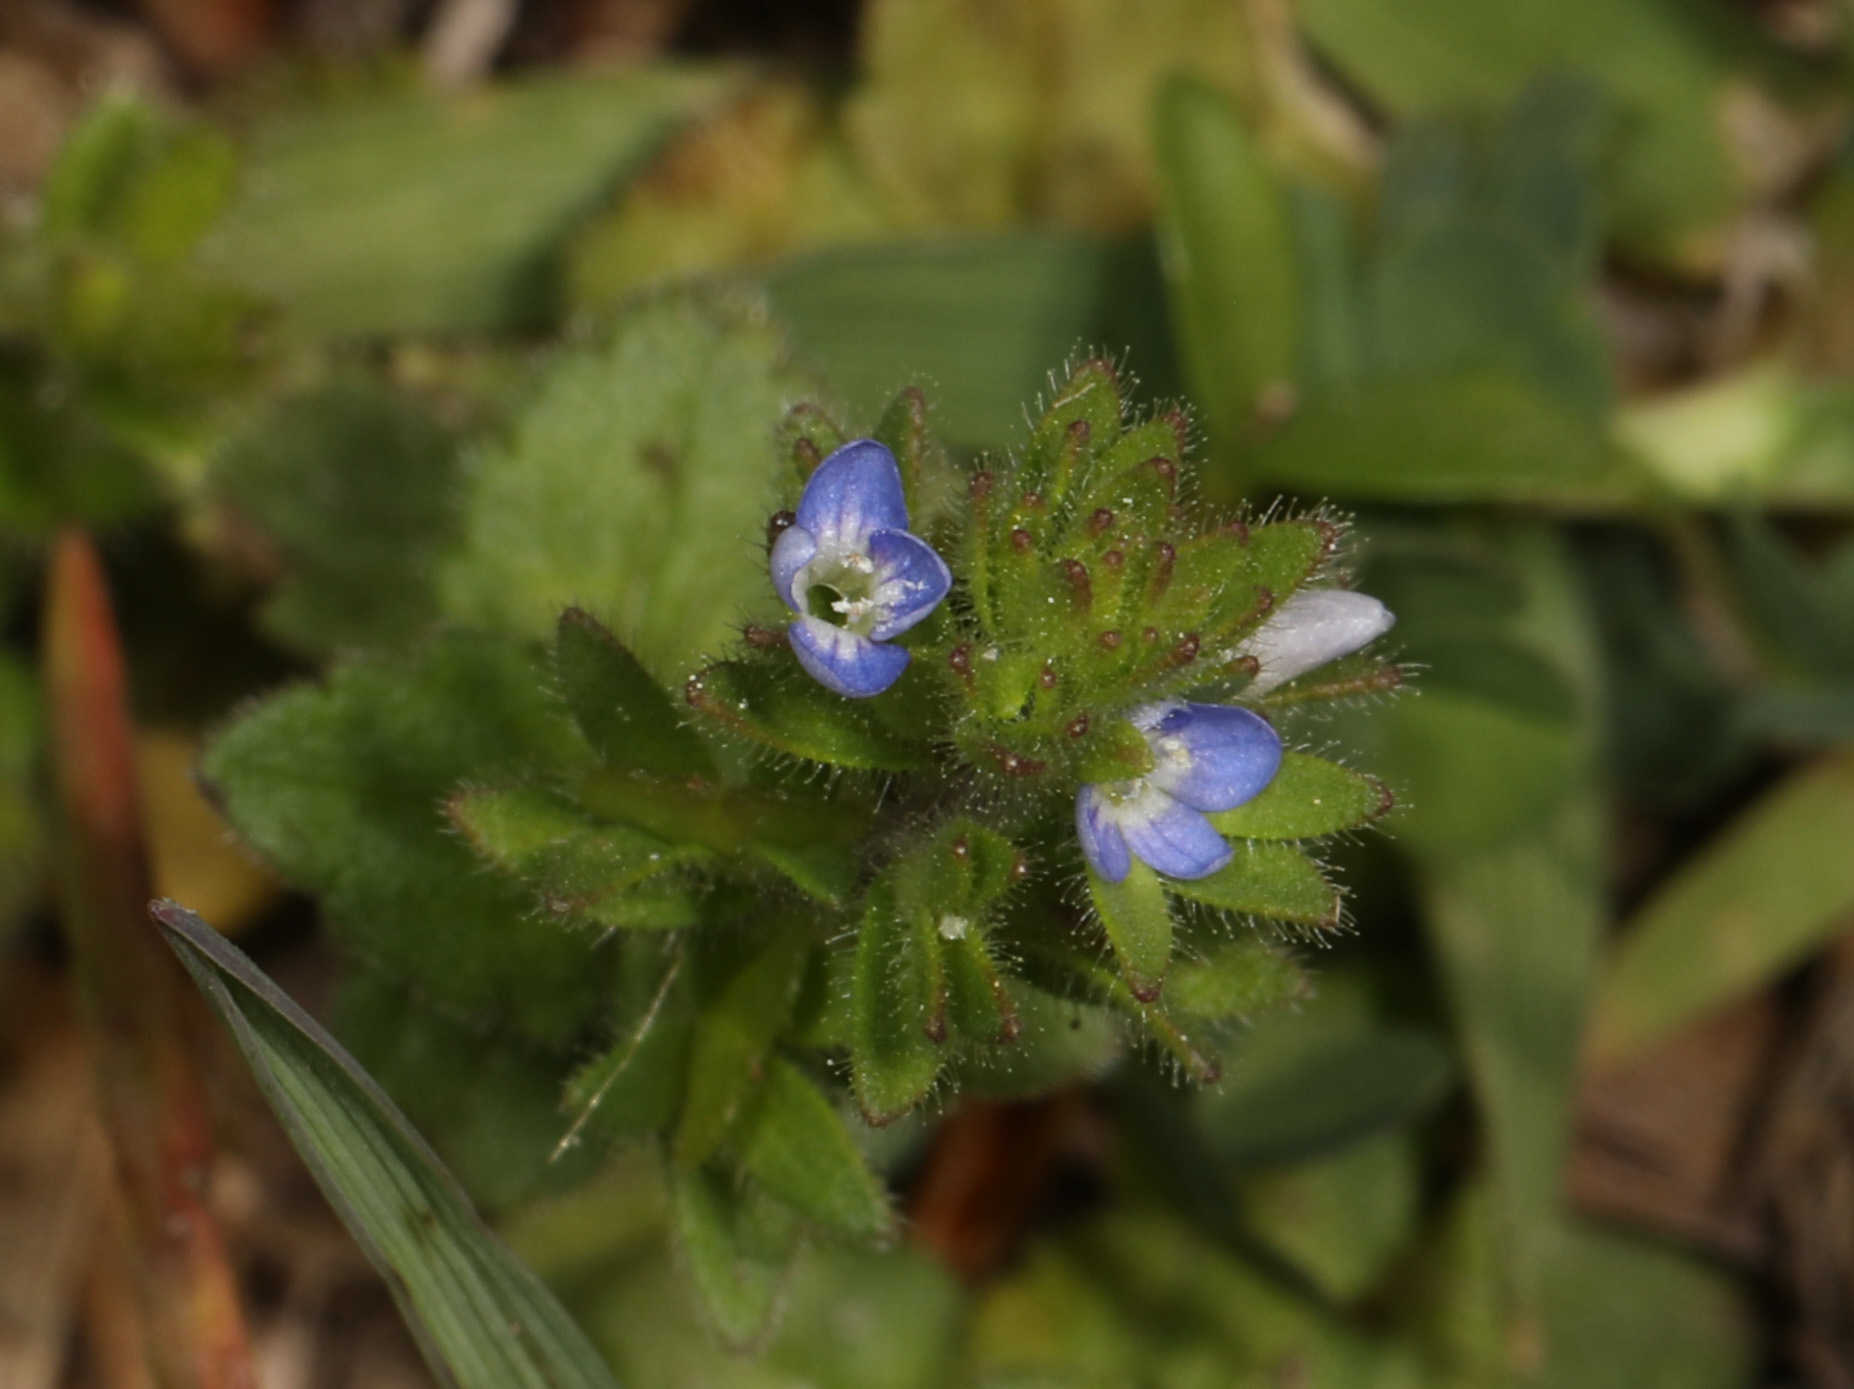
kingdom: Plantae
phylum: Tracheophyta
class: Magnoliopsida
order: Lamiales
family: Plantaginaceae
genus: Veronica
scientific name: Veronica arvensis
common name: Corn speedwell
